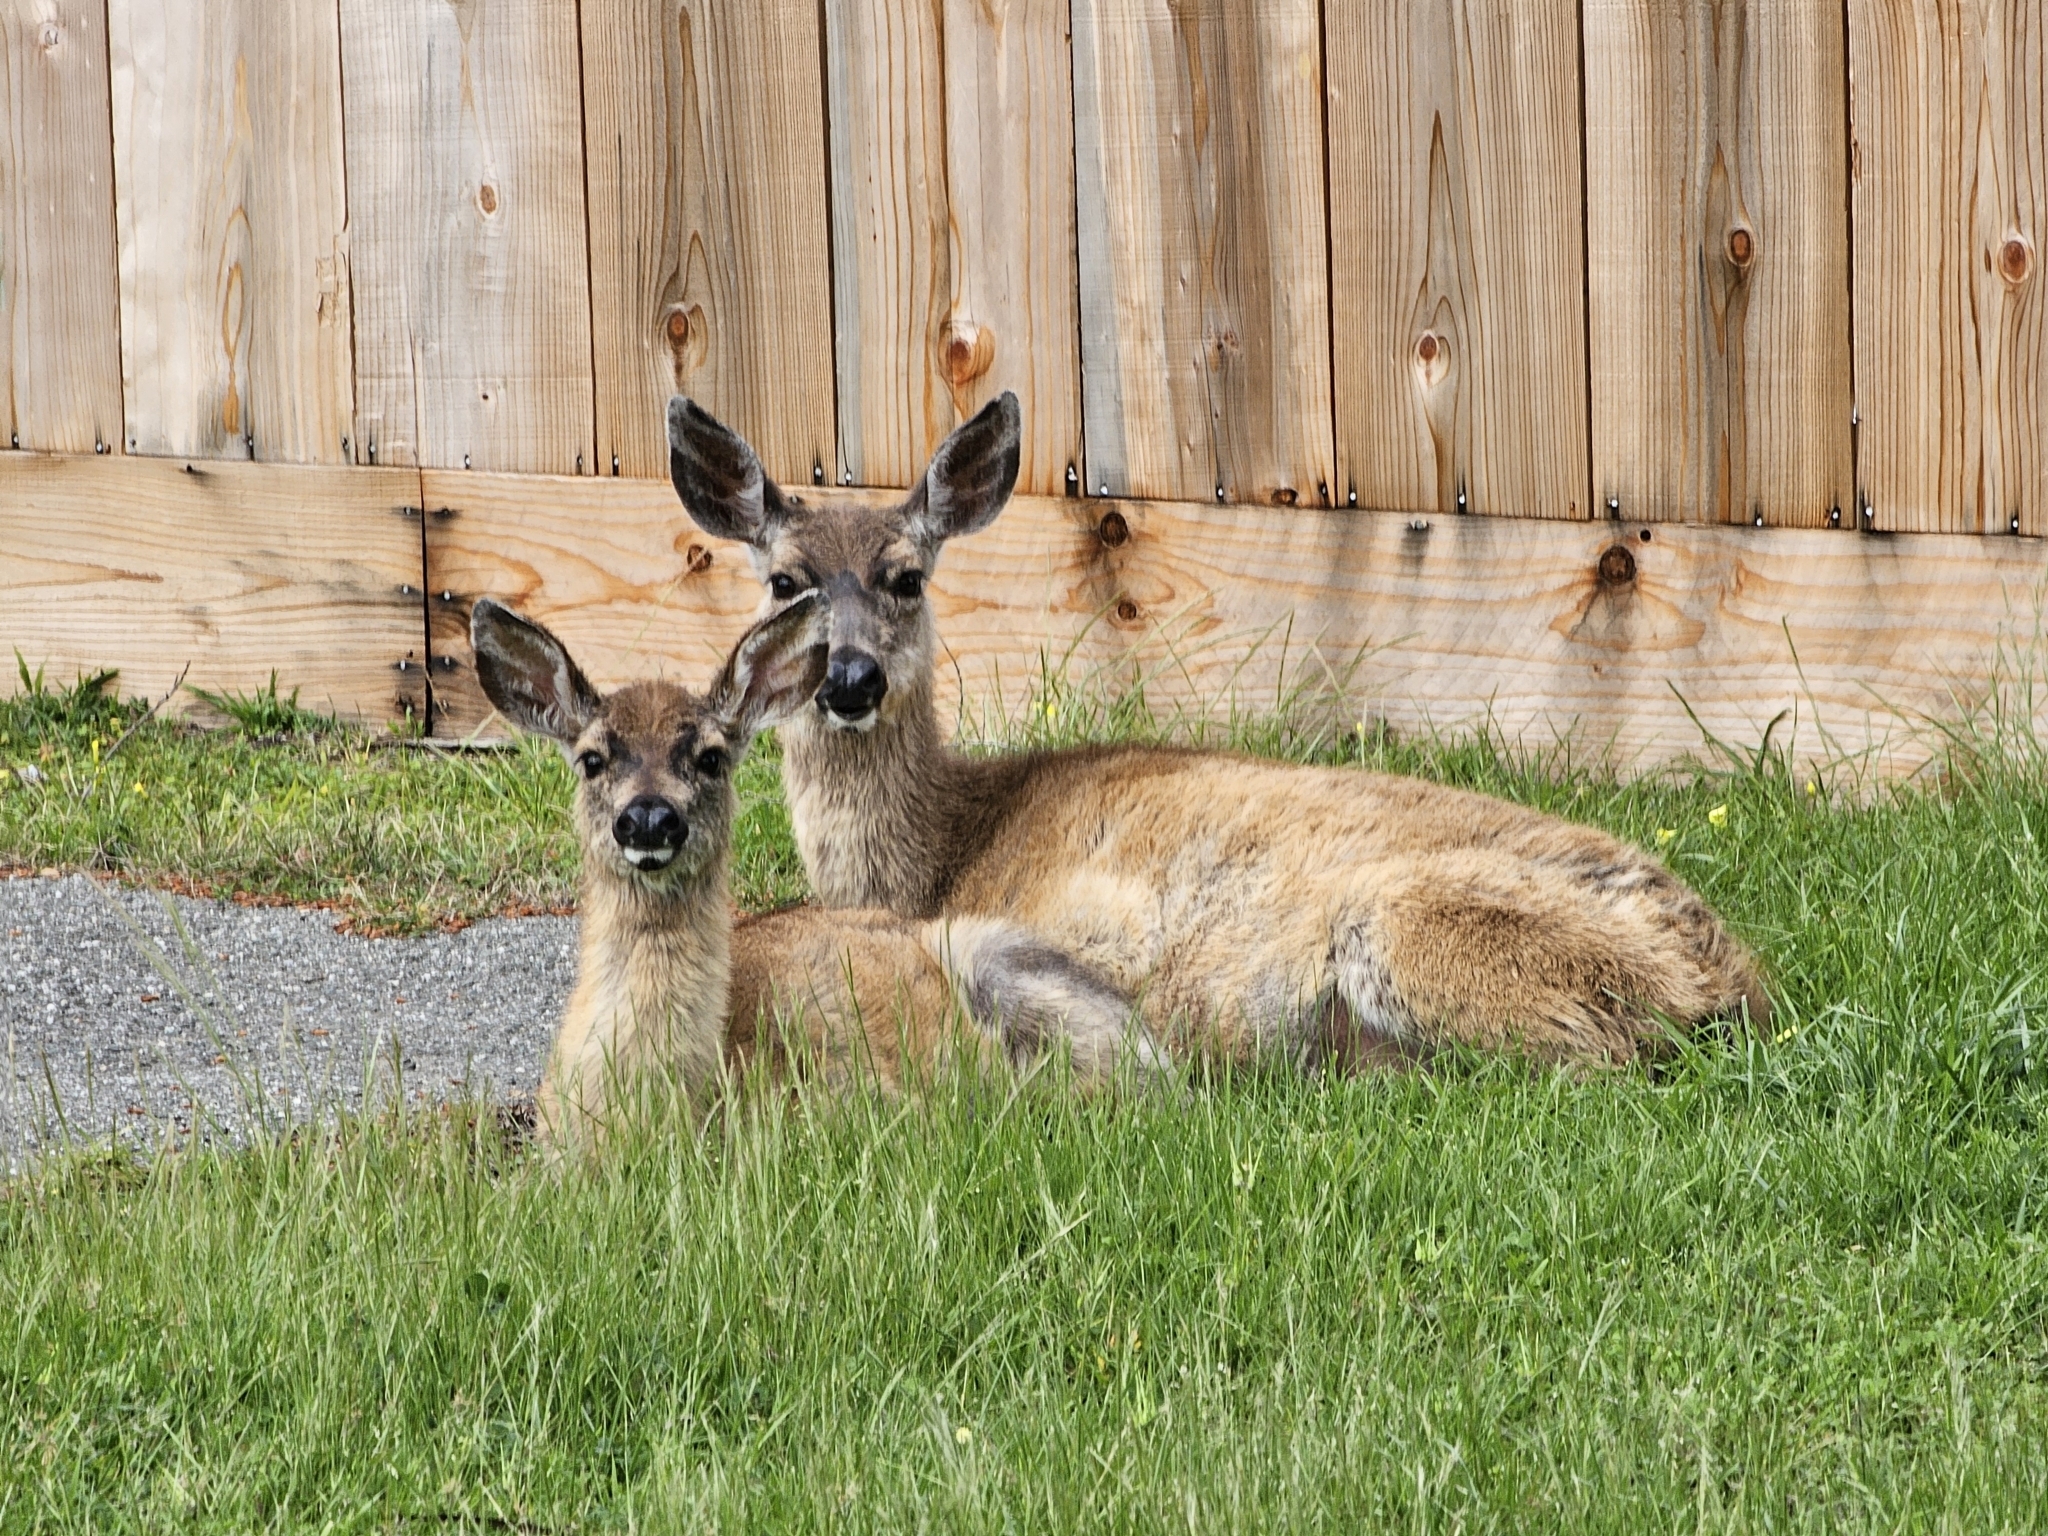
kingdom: Animalia
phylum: Chordata
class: Mammalia
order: Artiodactyla
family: Cervidae
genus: Odocoileus
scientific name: Odocoileus hemionus
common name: Mule deer
